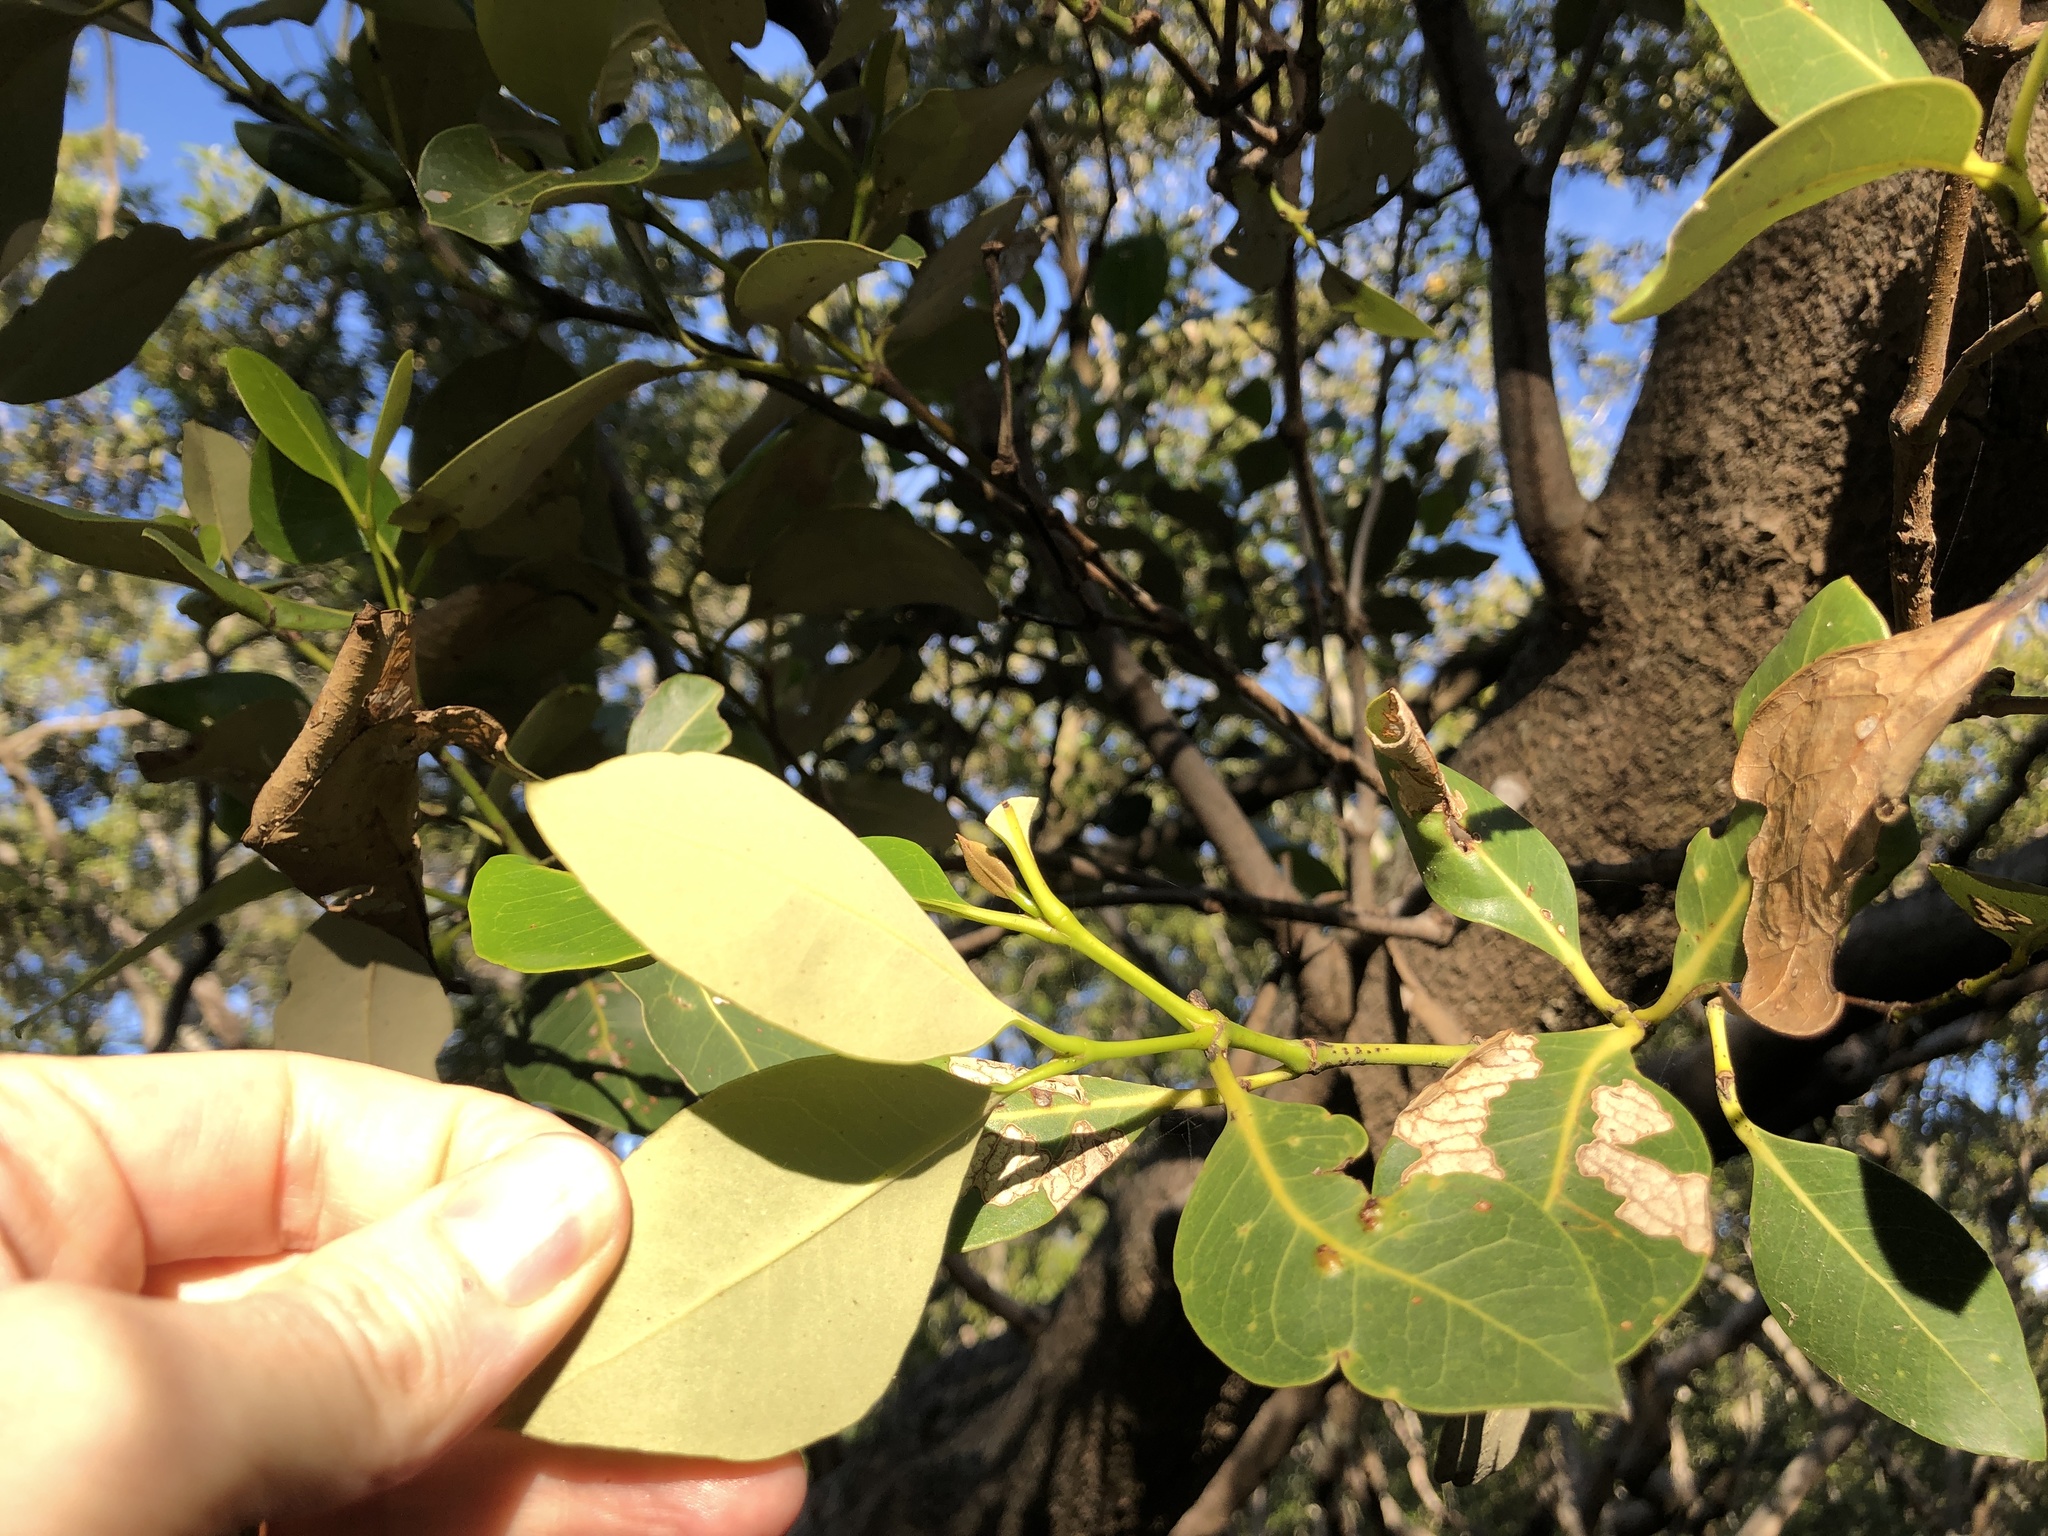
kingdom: Plantae
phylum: Tracheophyta
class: Magnoliopsida
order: Lamiales
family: Acanthaceae
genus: Avicennia
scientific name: Avicennia marina
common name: Gray mangrove
